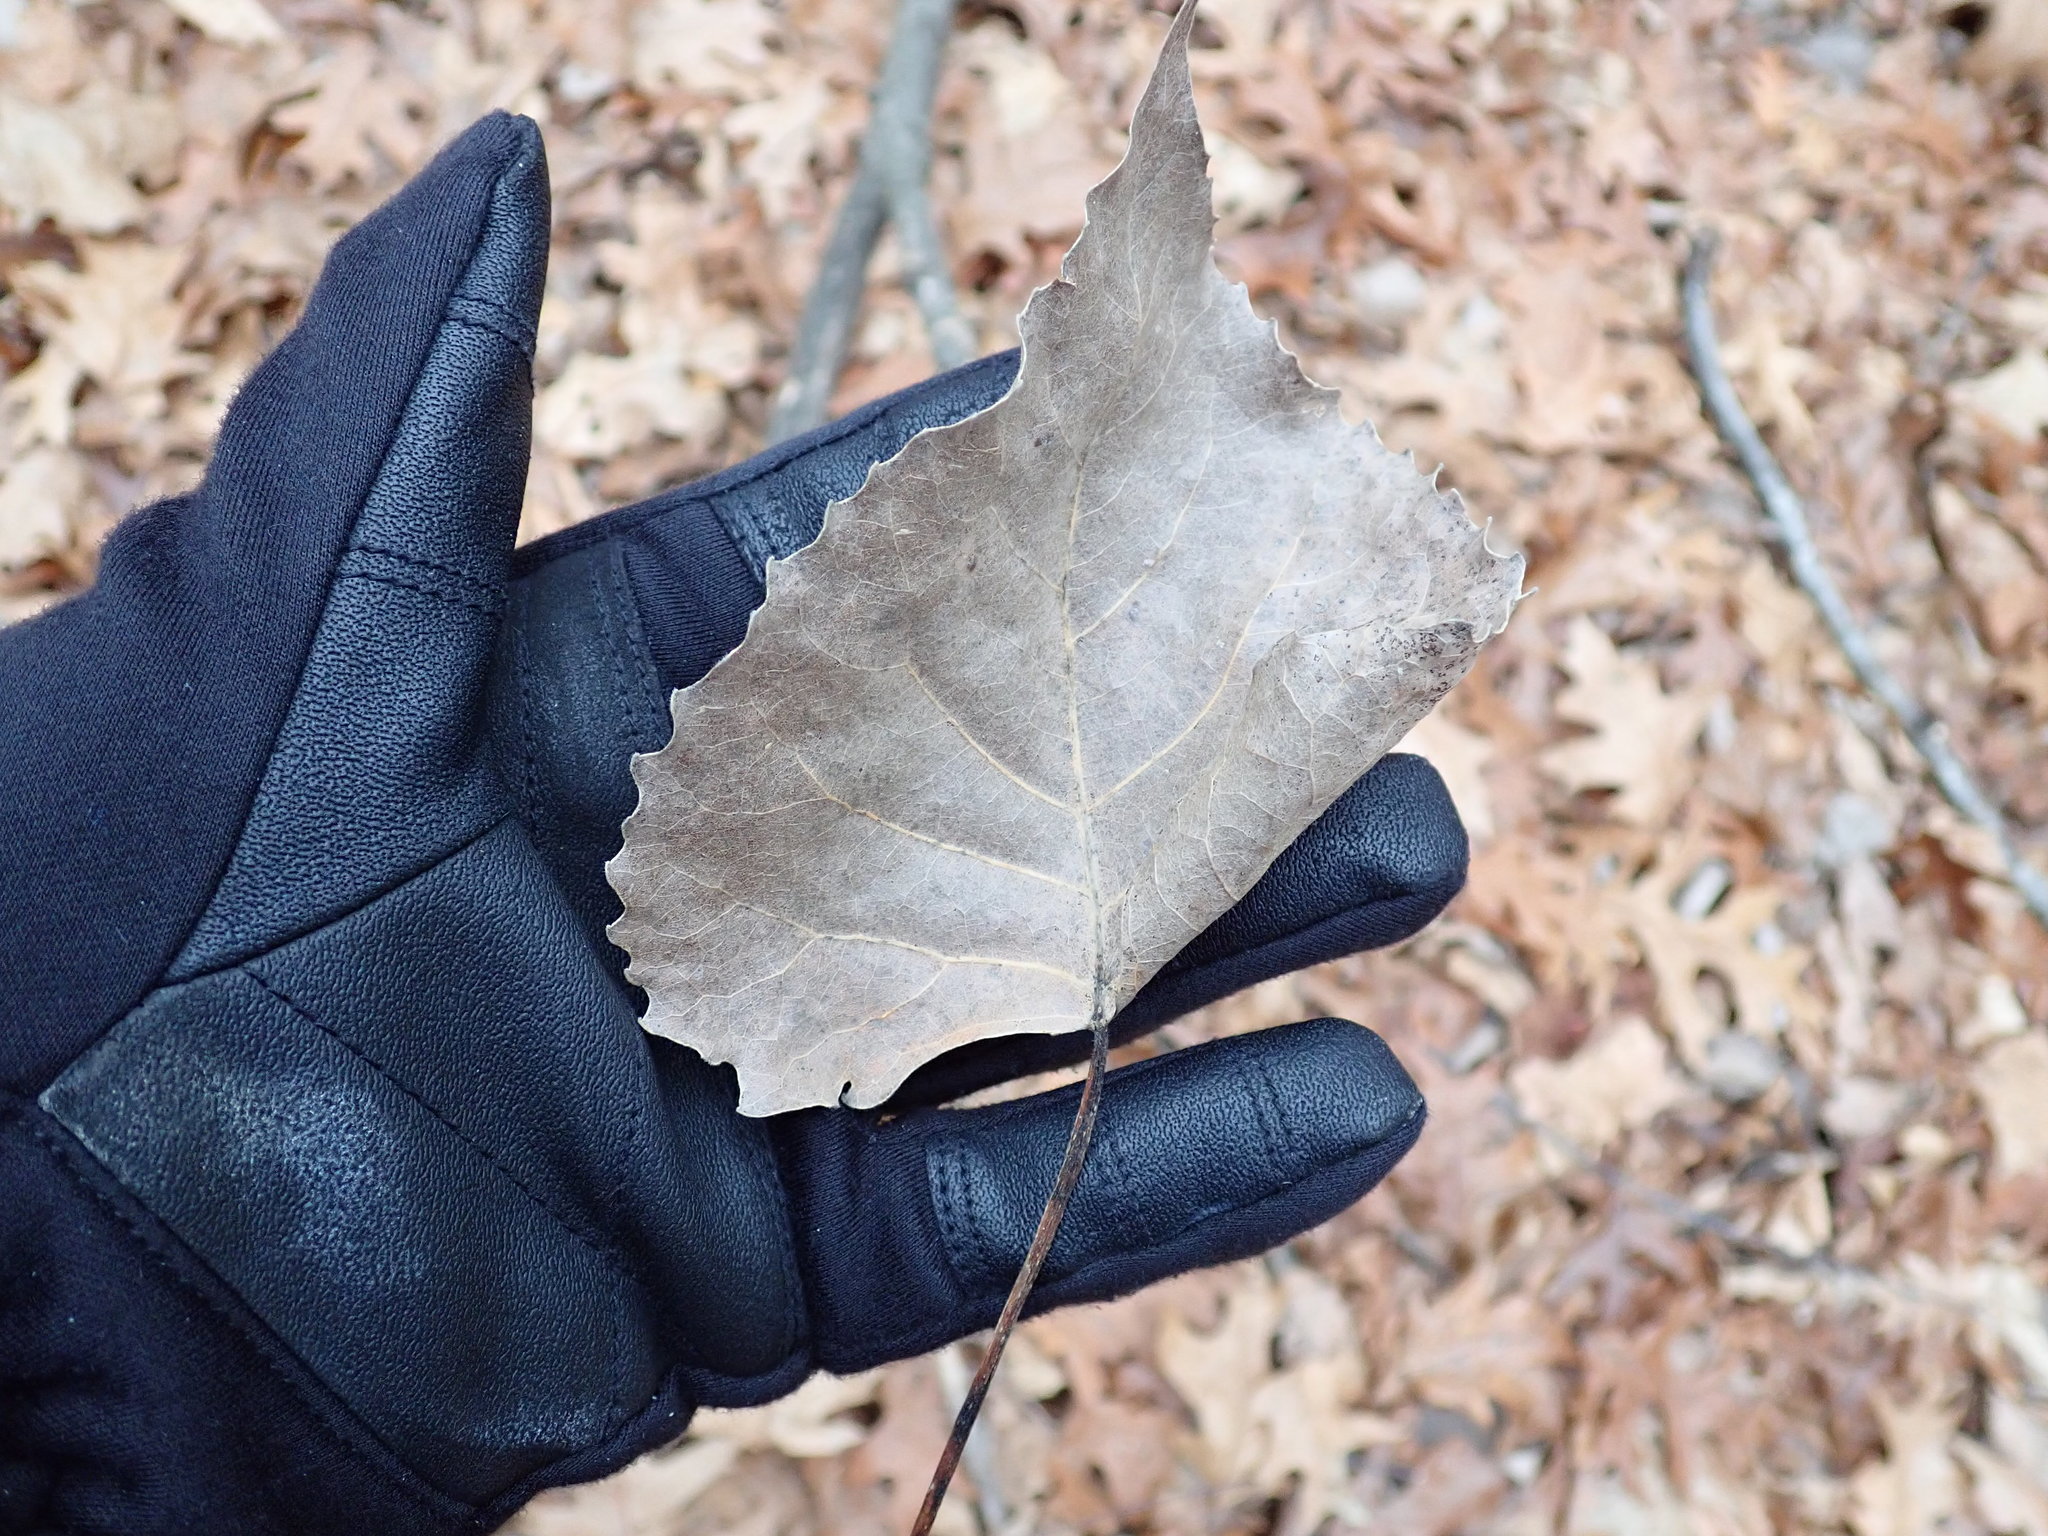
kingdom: Plantae
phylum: Tracheophyta
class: Magnoliopsida
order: Malpighiales
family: Salicaceae
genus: Populus
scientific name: Populus deltoides
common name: Eastern cottonwood
